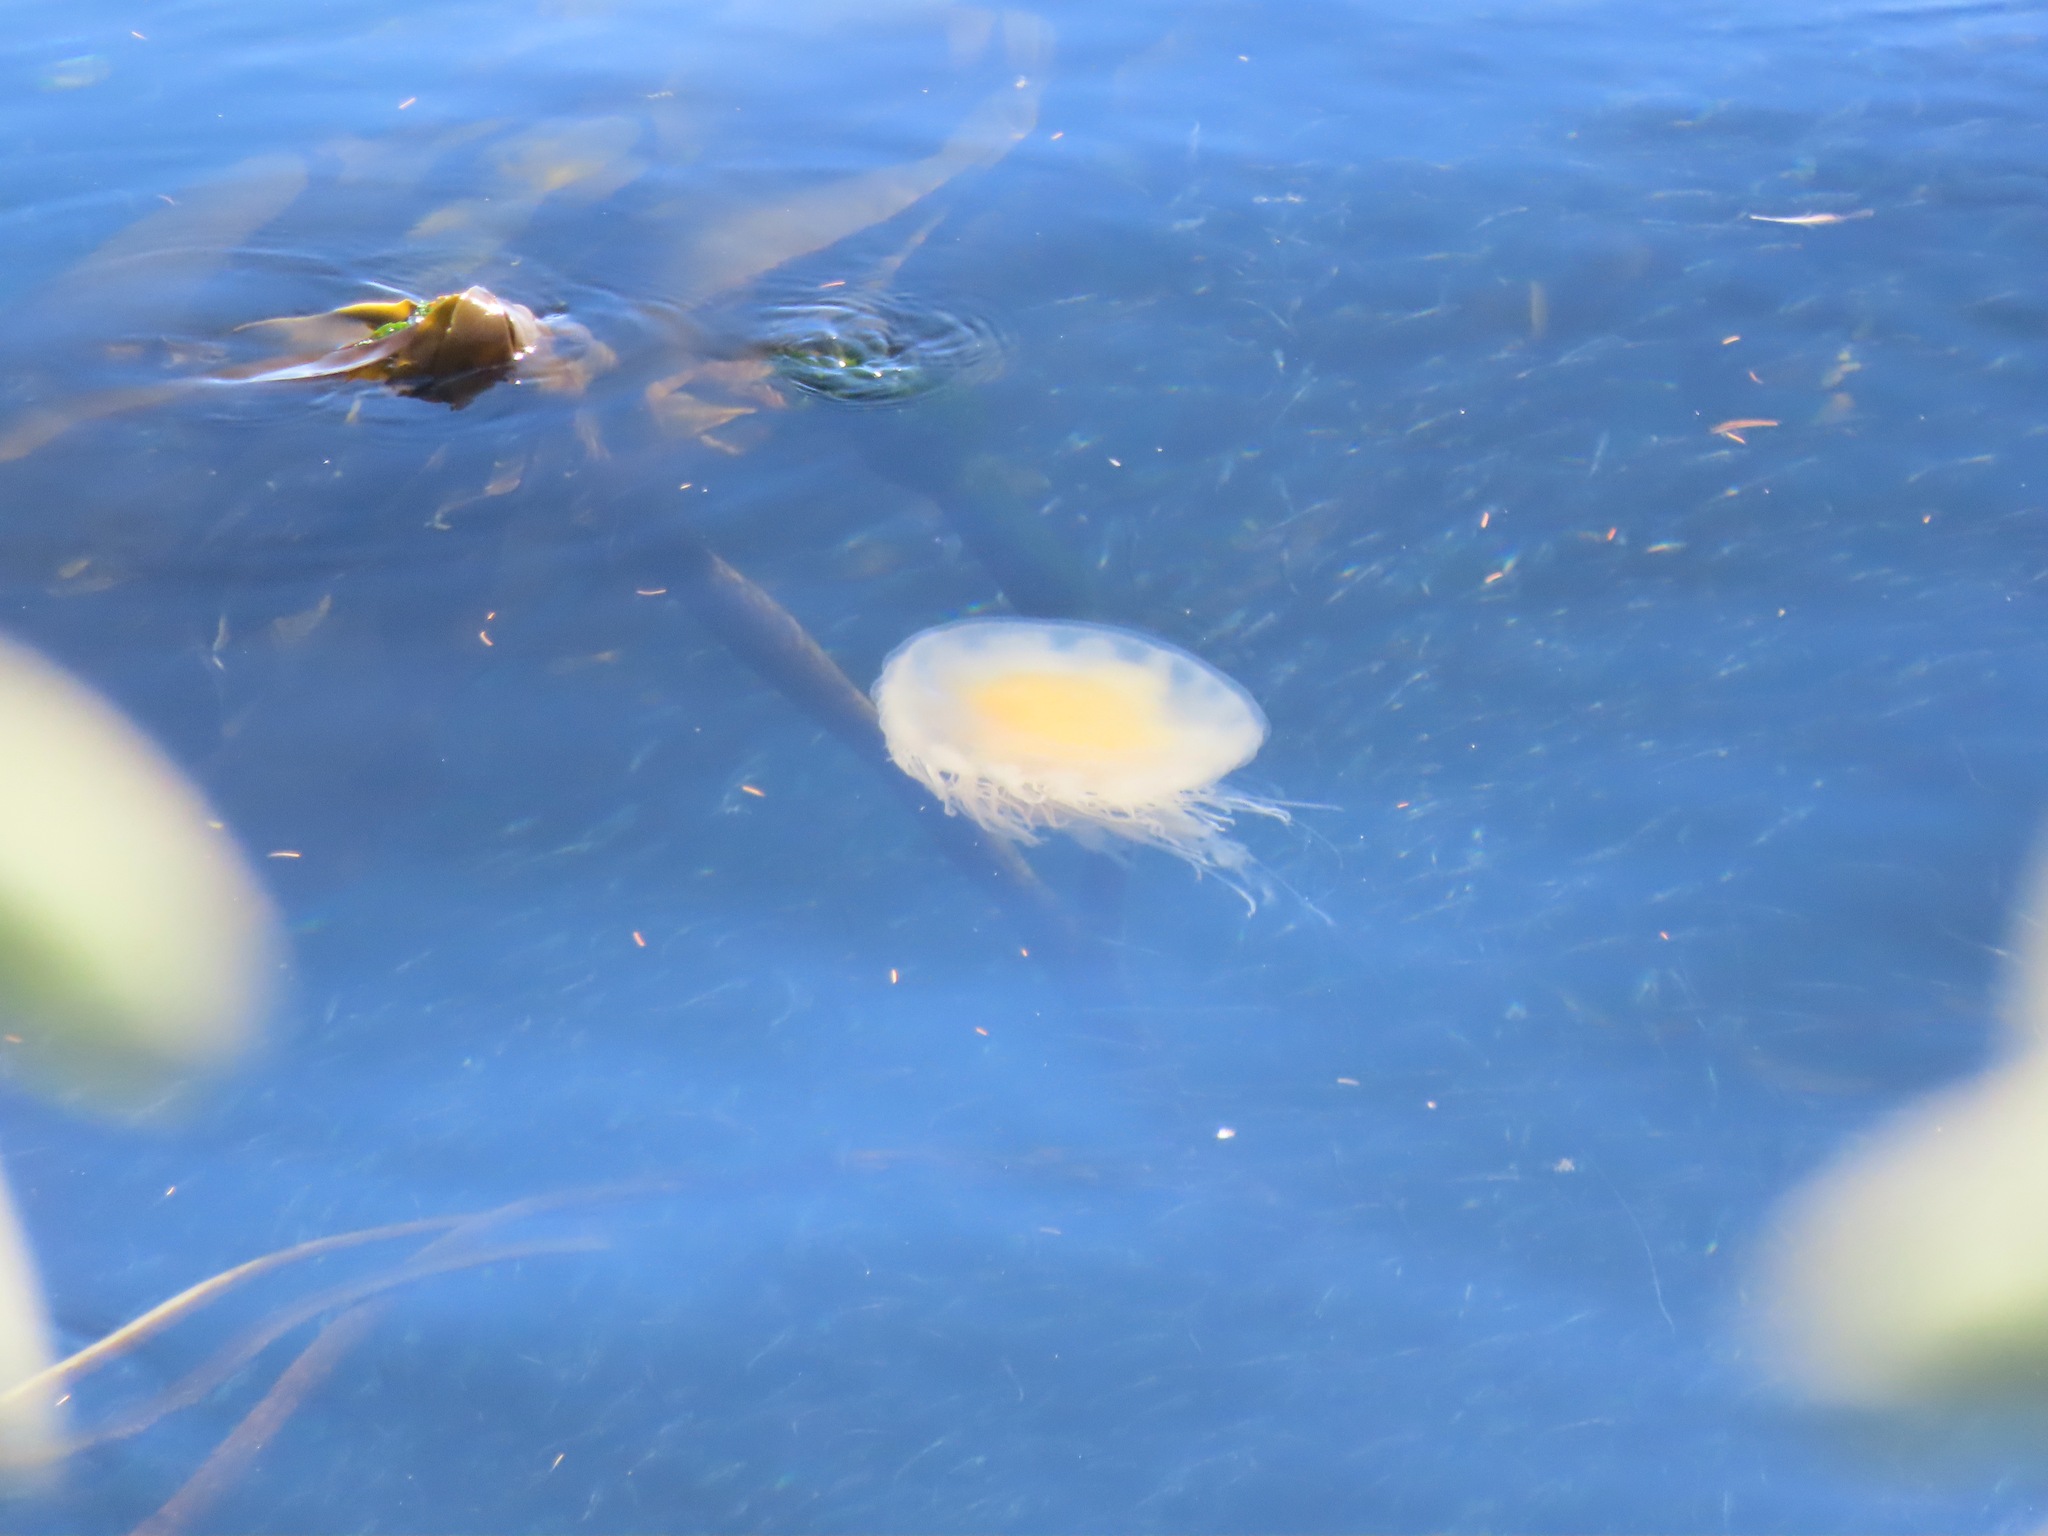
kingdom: Animalia
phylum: Cnidaria
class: Scyphozoa
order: Semaeostomeae
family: Phacellophoridae
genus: Phacellophora
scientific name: Phacellophora camtschatica
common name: Fried-egg jellyfish
